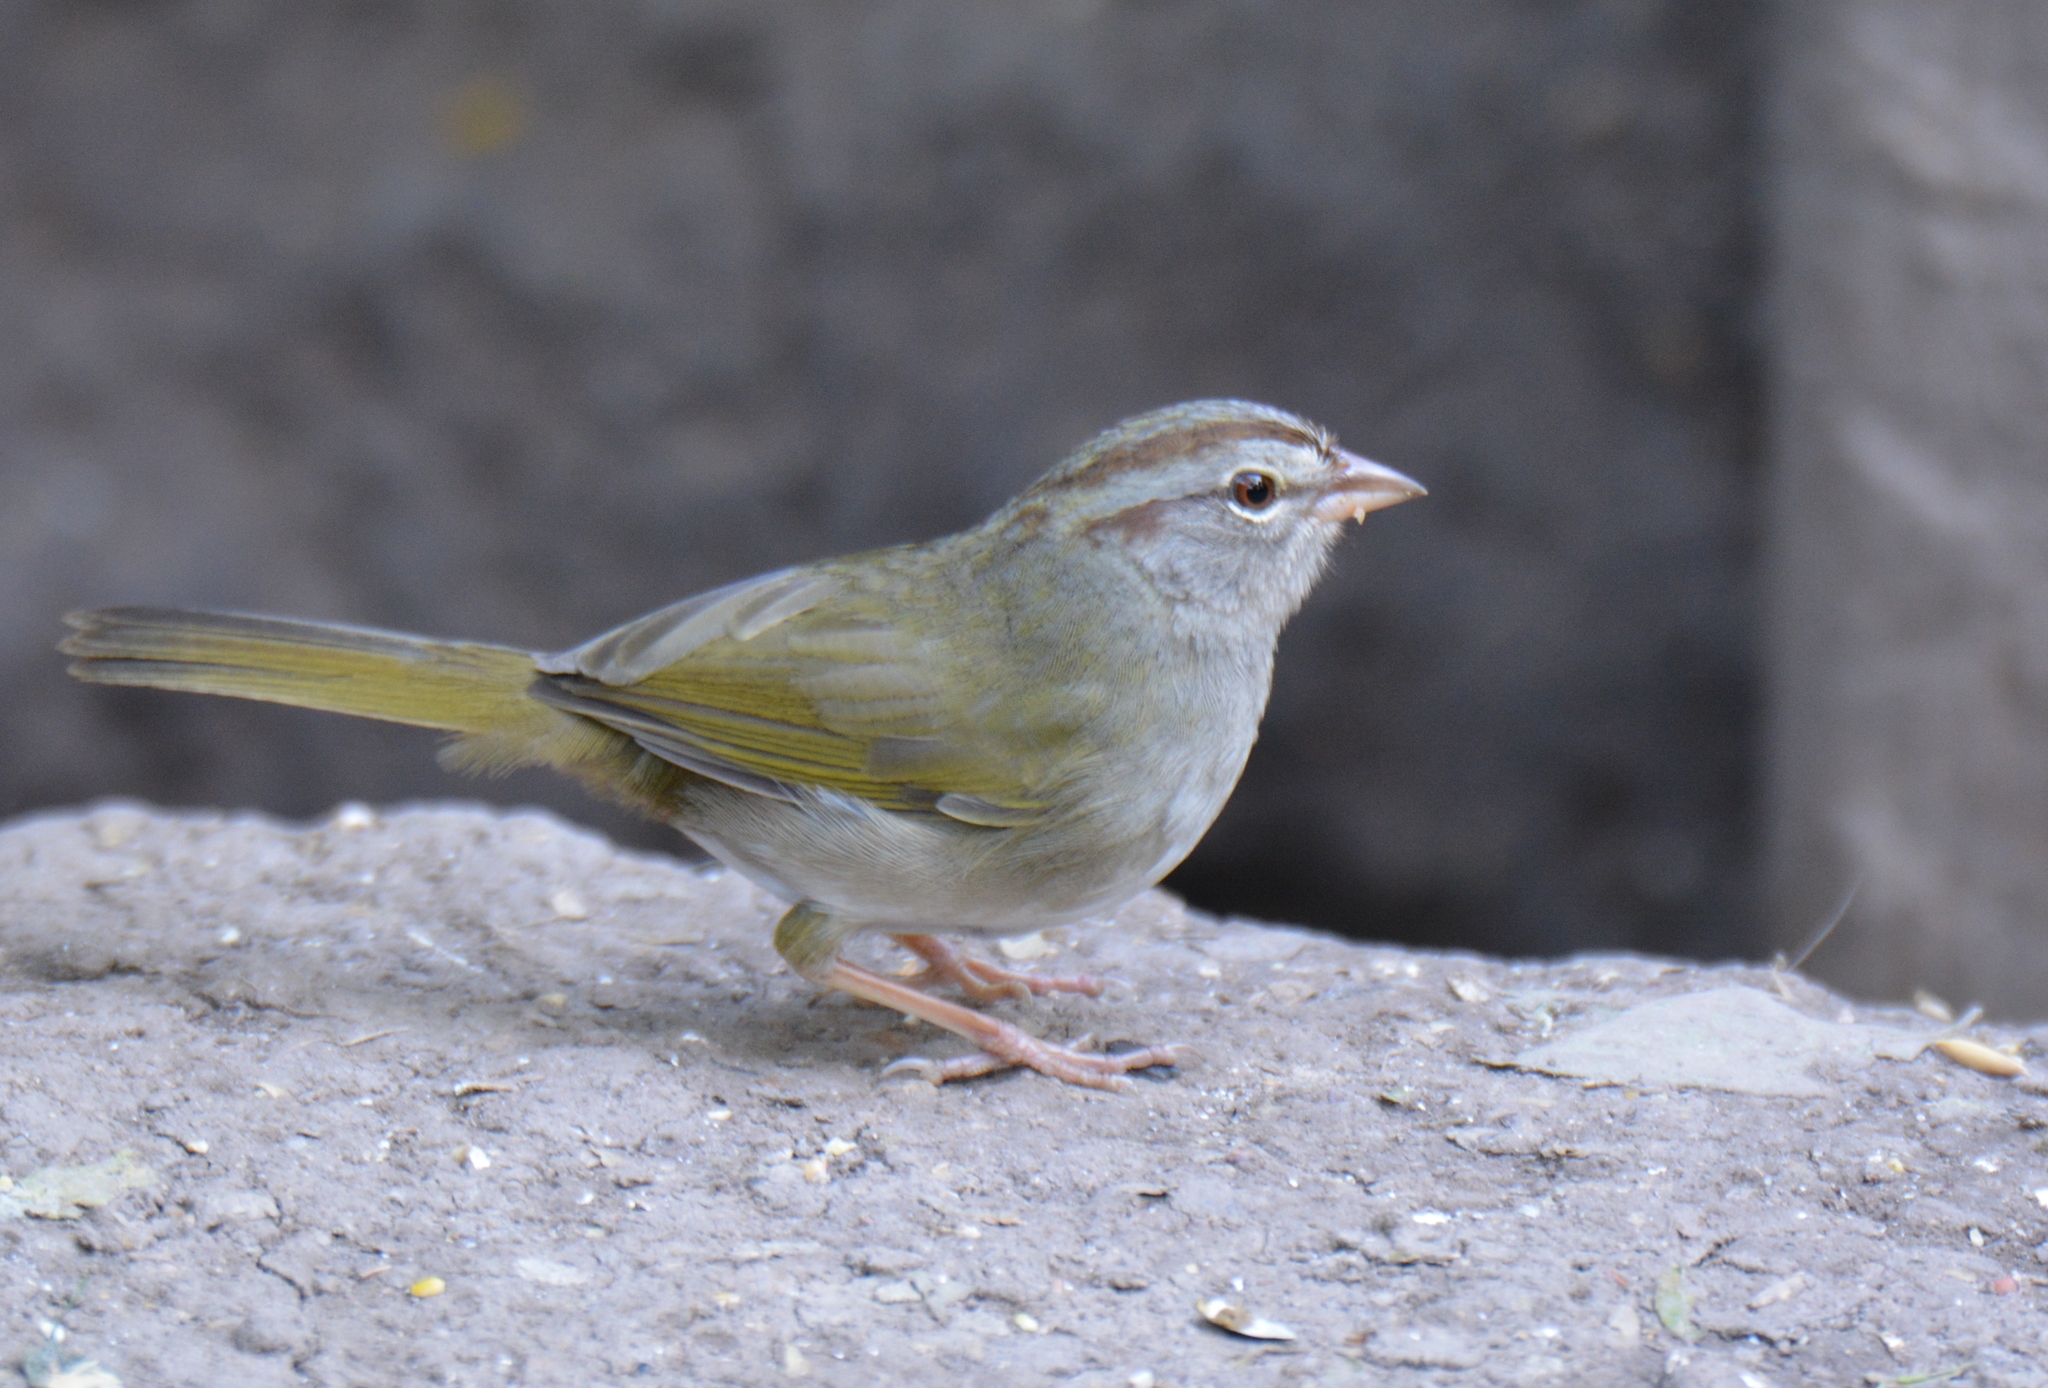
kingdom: Animalia
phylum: Chordata
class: Aves
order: Passeriformes
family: Passerellidae
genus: Arremonops
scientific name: Arremonops rufivirgatus
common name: Olive sparrow
